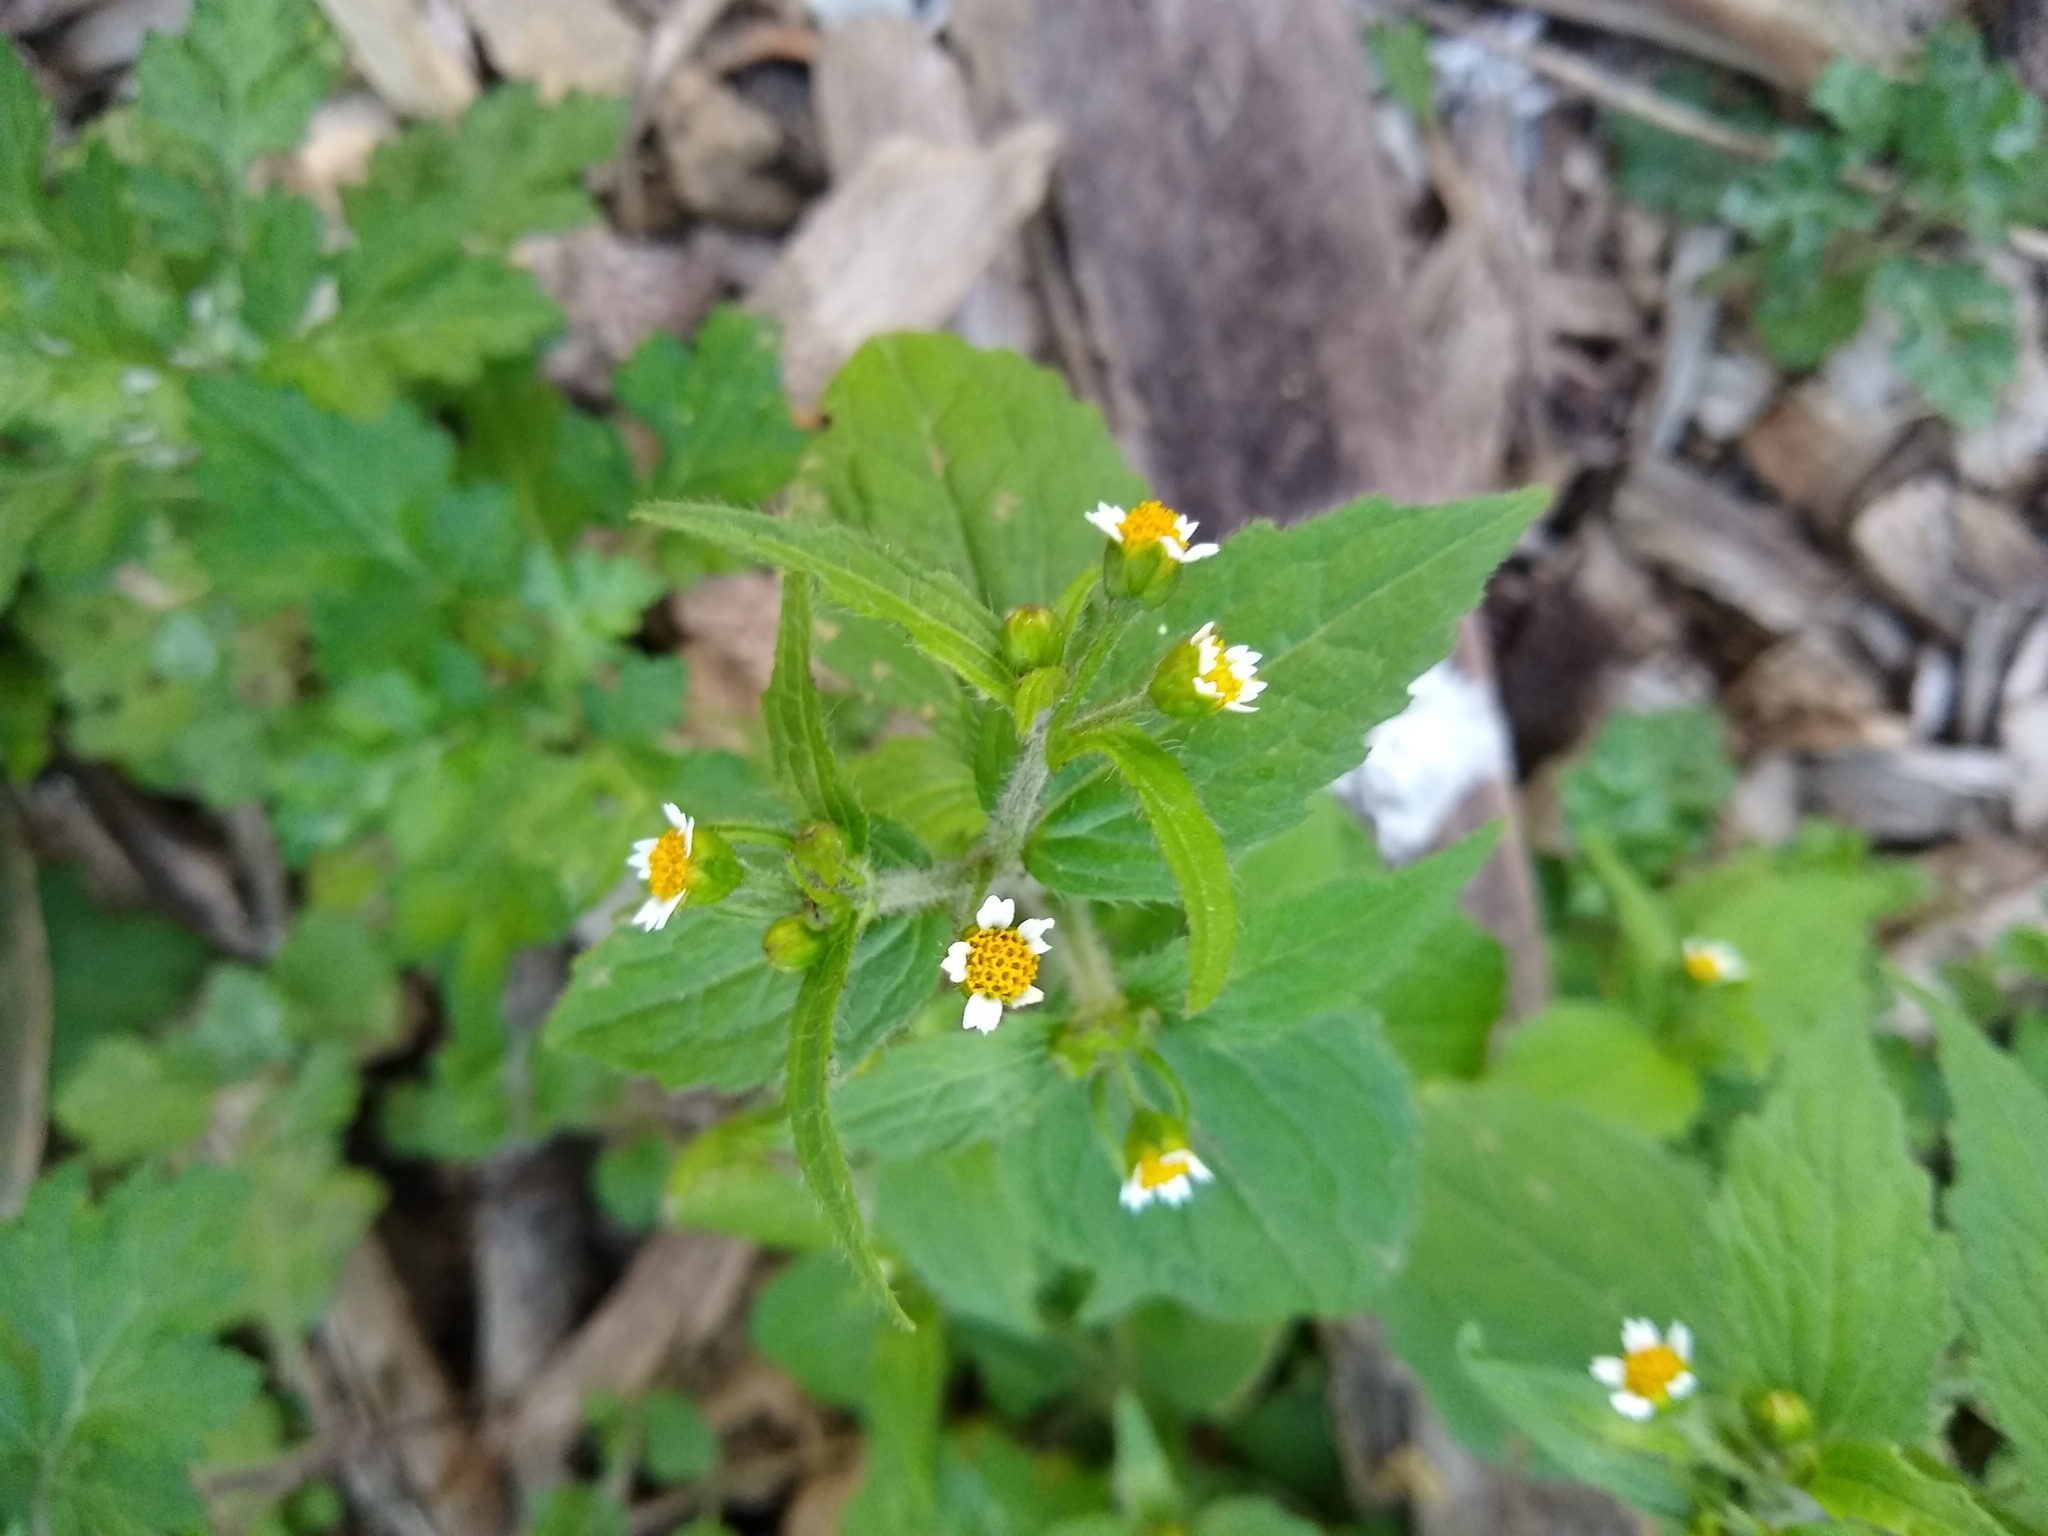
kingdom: Plantae
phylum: Tracheophyta
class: Magnoliopsida
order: Asterales
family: Asteraceae
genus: Galinsoga
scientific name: Galinsoga quadriradiata
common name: Shaggy soldier
